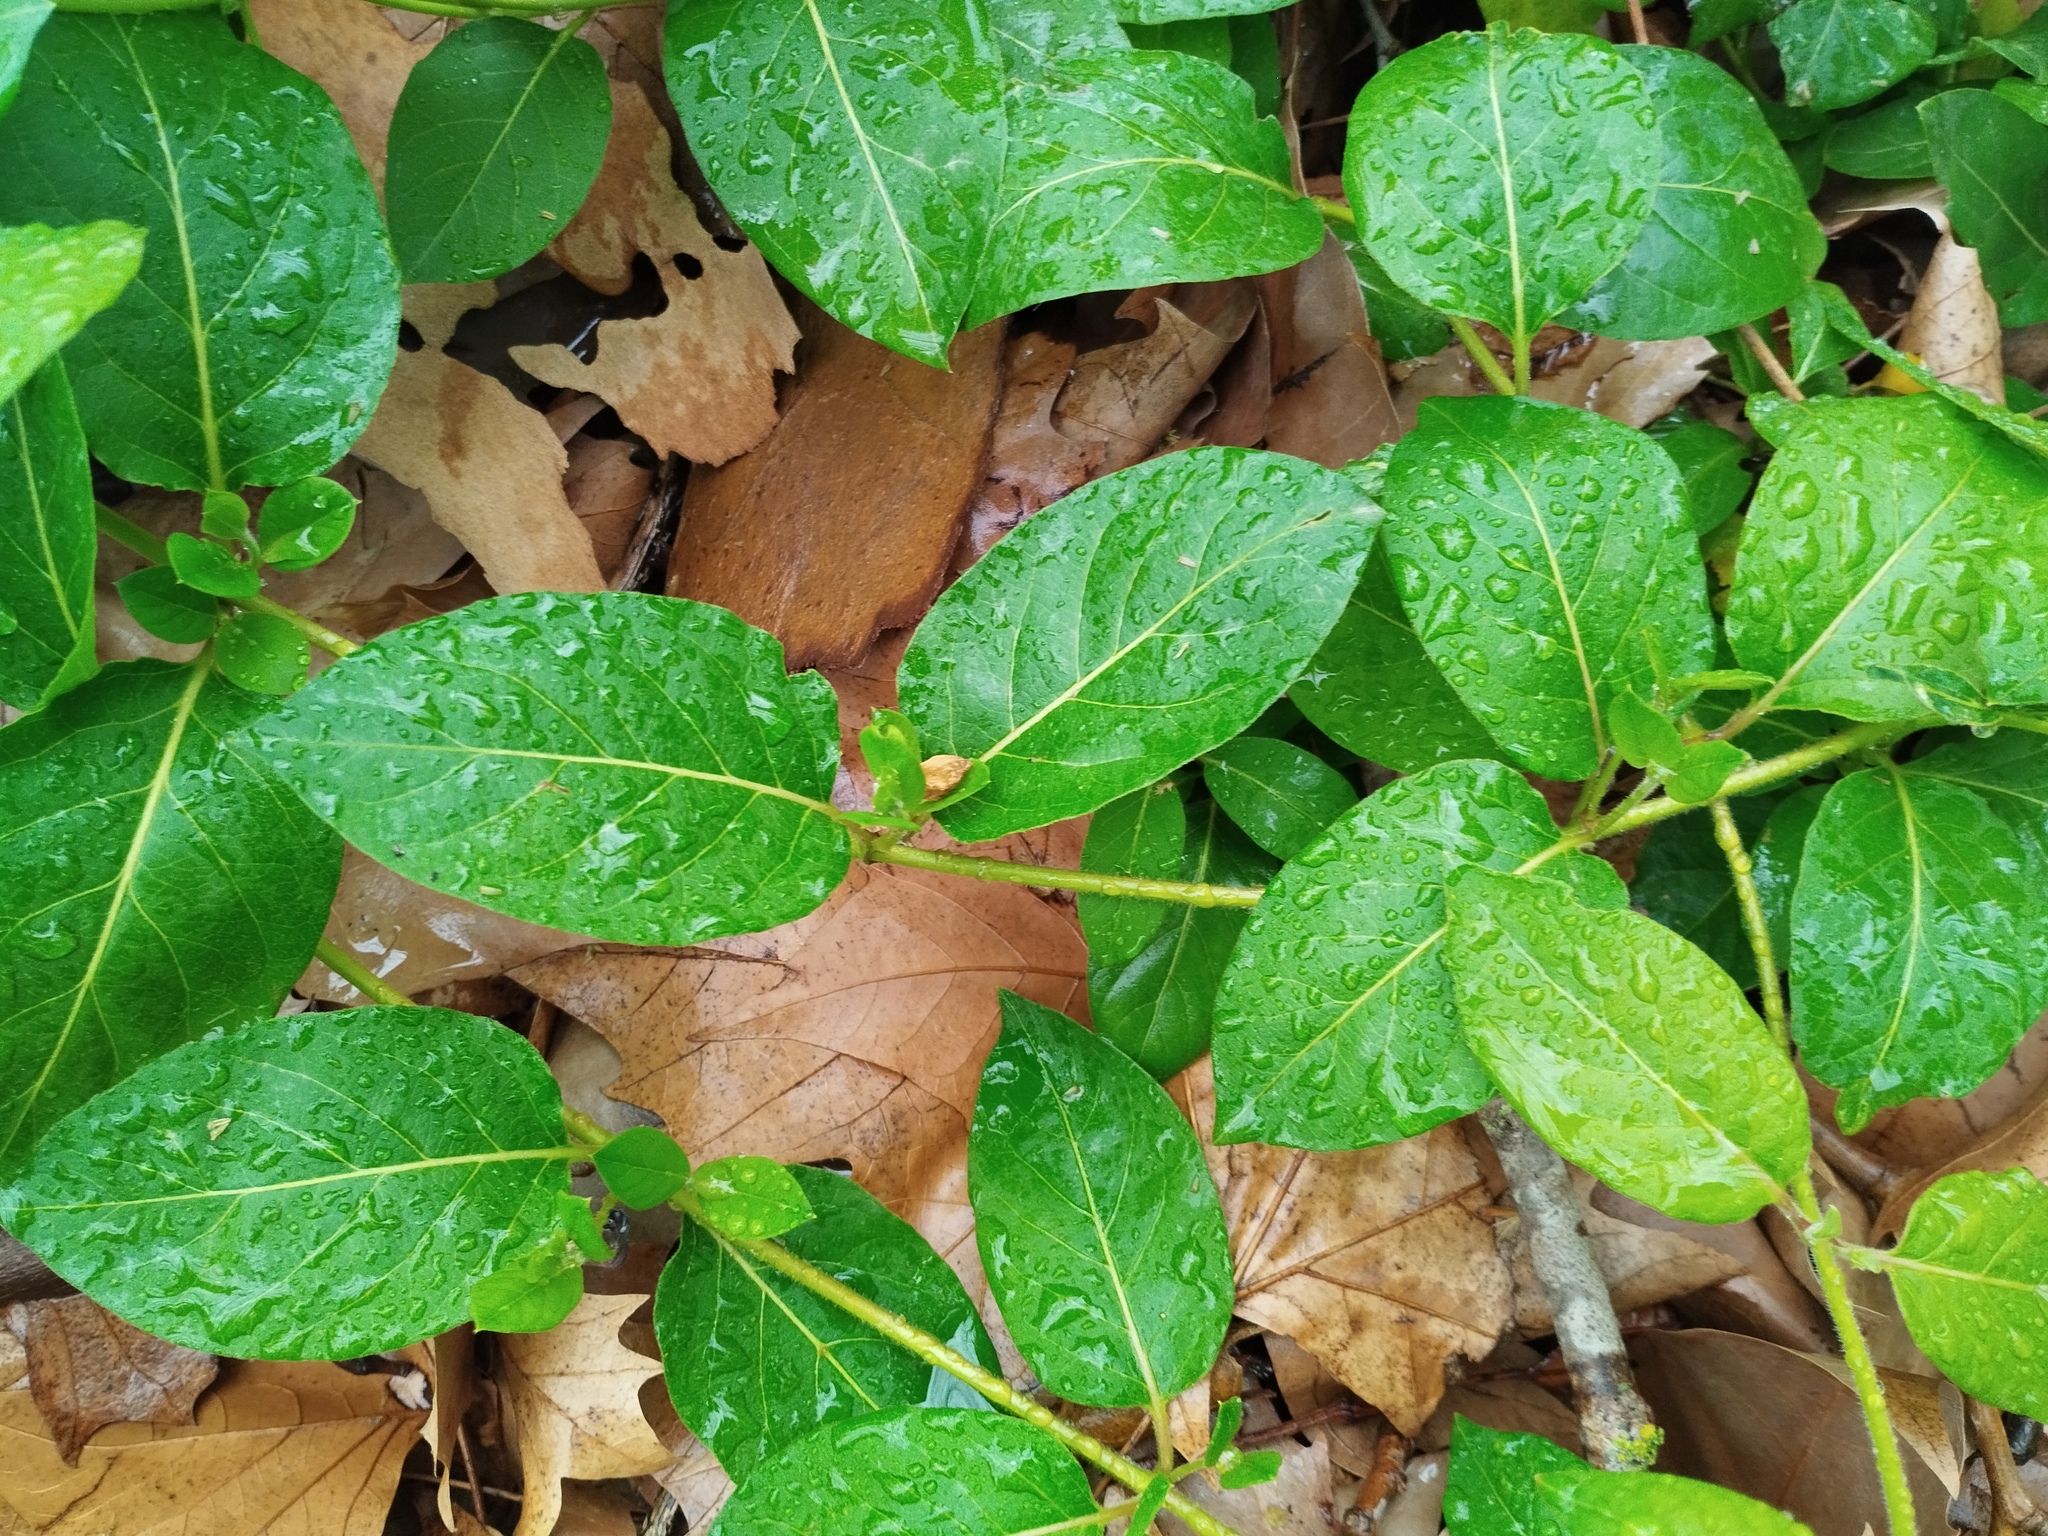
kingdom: Plantae
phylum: Tracheophyta
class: Magnoliopsida
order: Dipsacales
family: Caprifoliaceae
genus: Lonicera
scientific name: Lonicera japonica
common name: Japanese honeysuckle
